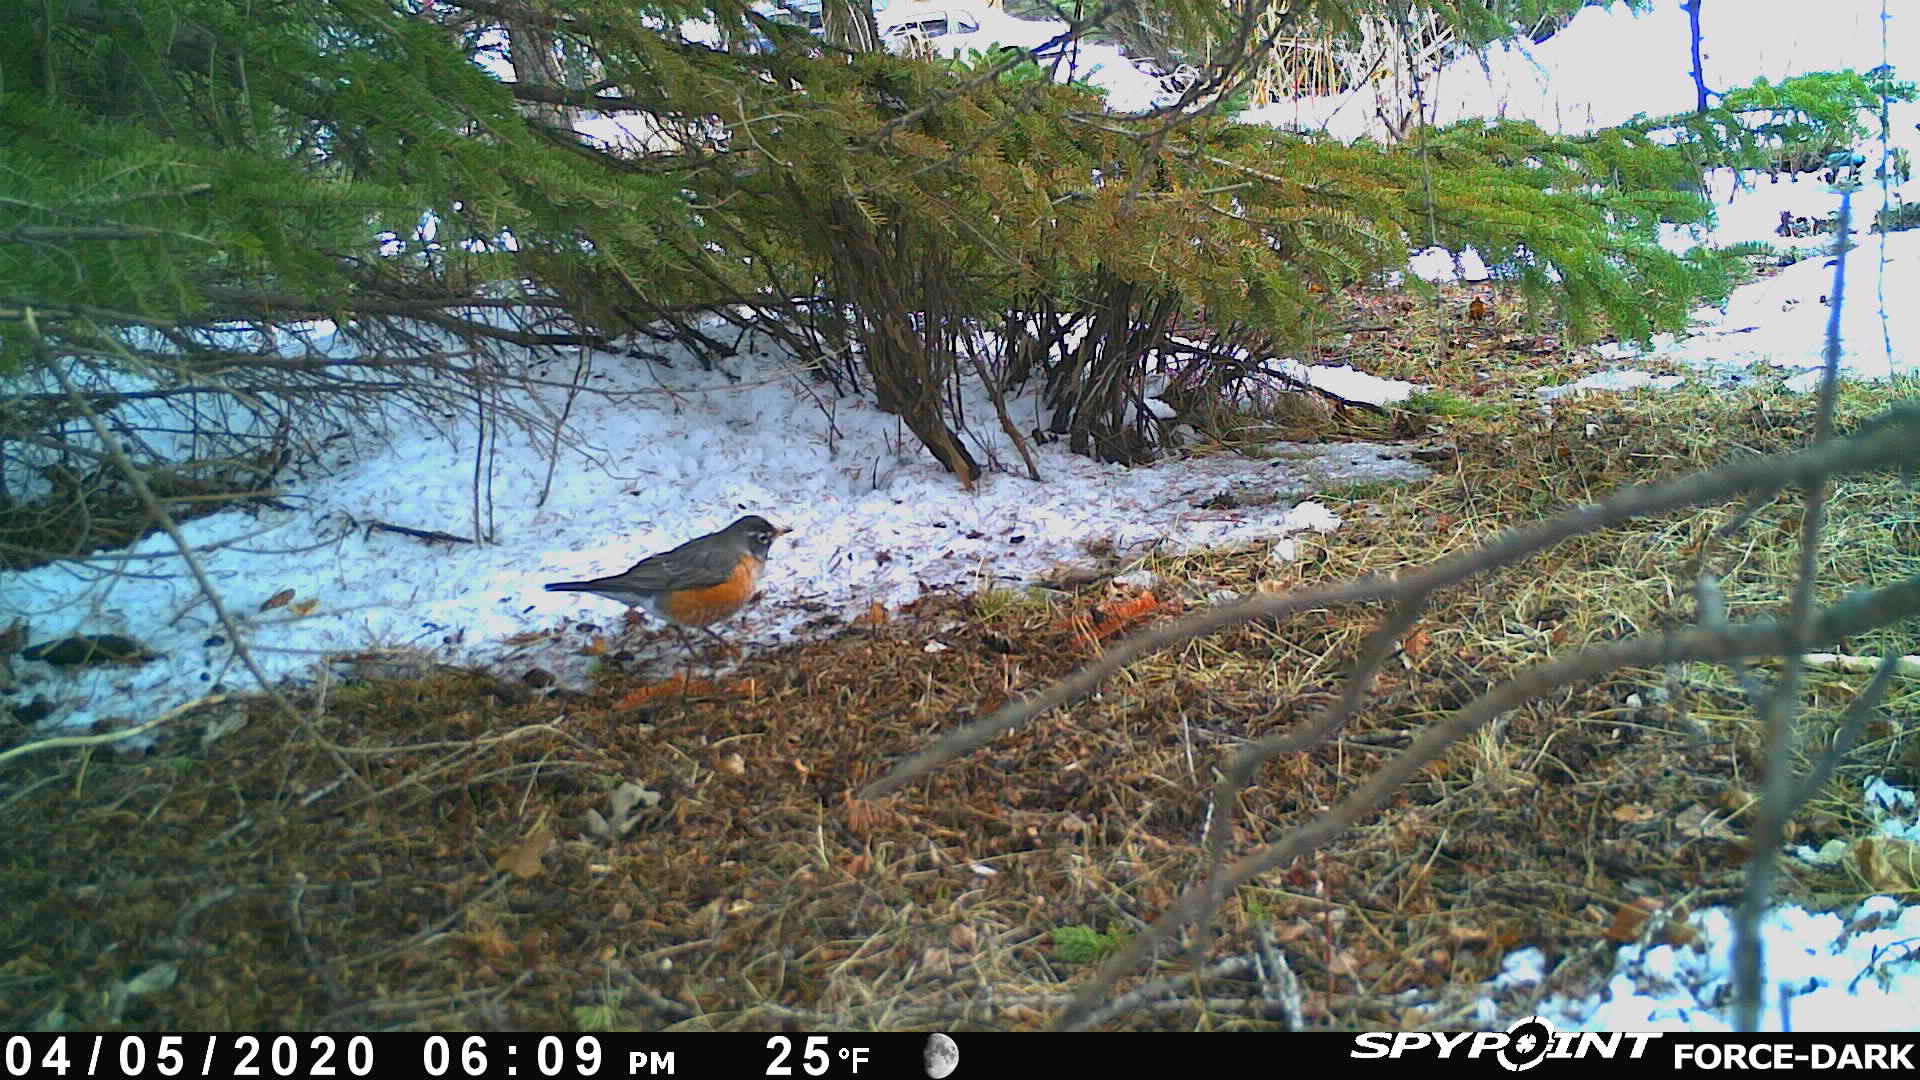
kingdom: Animalia
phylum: Chordata
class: Aves
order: Passeriformes
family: Turdidae
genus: Turdus
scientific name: Turdus migratorius
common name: American robin
